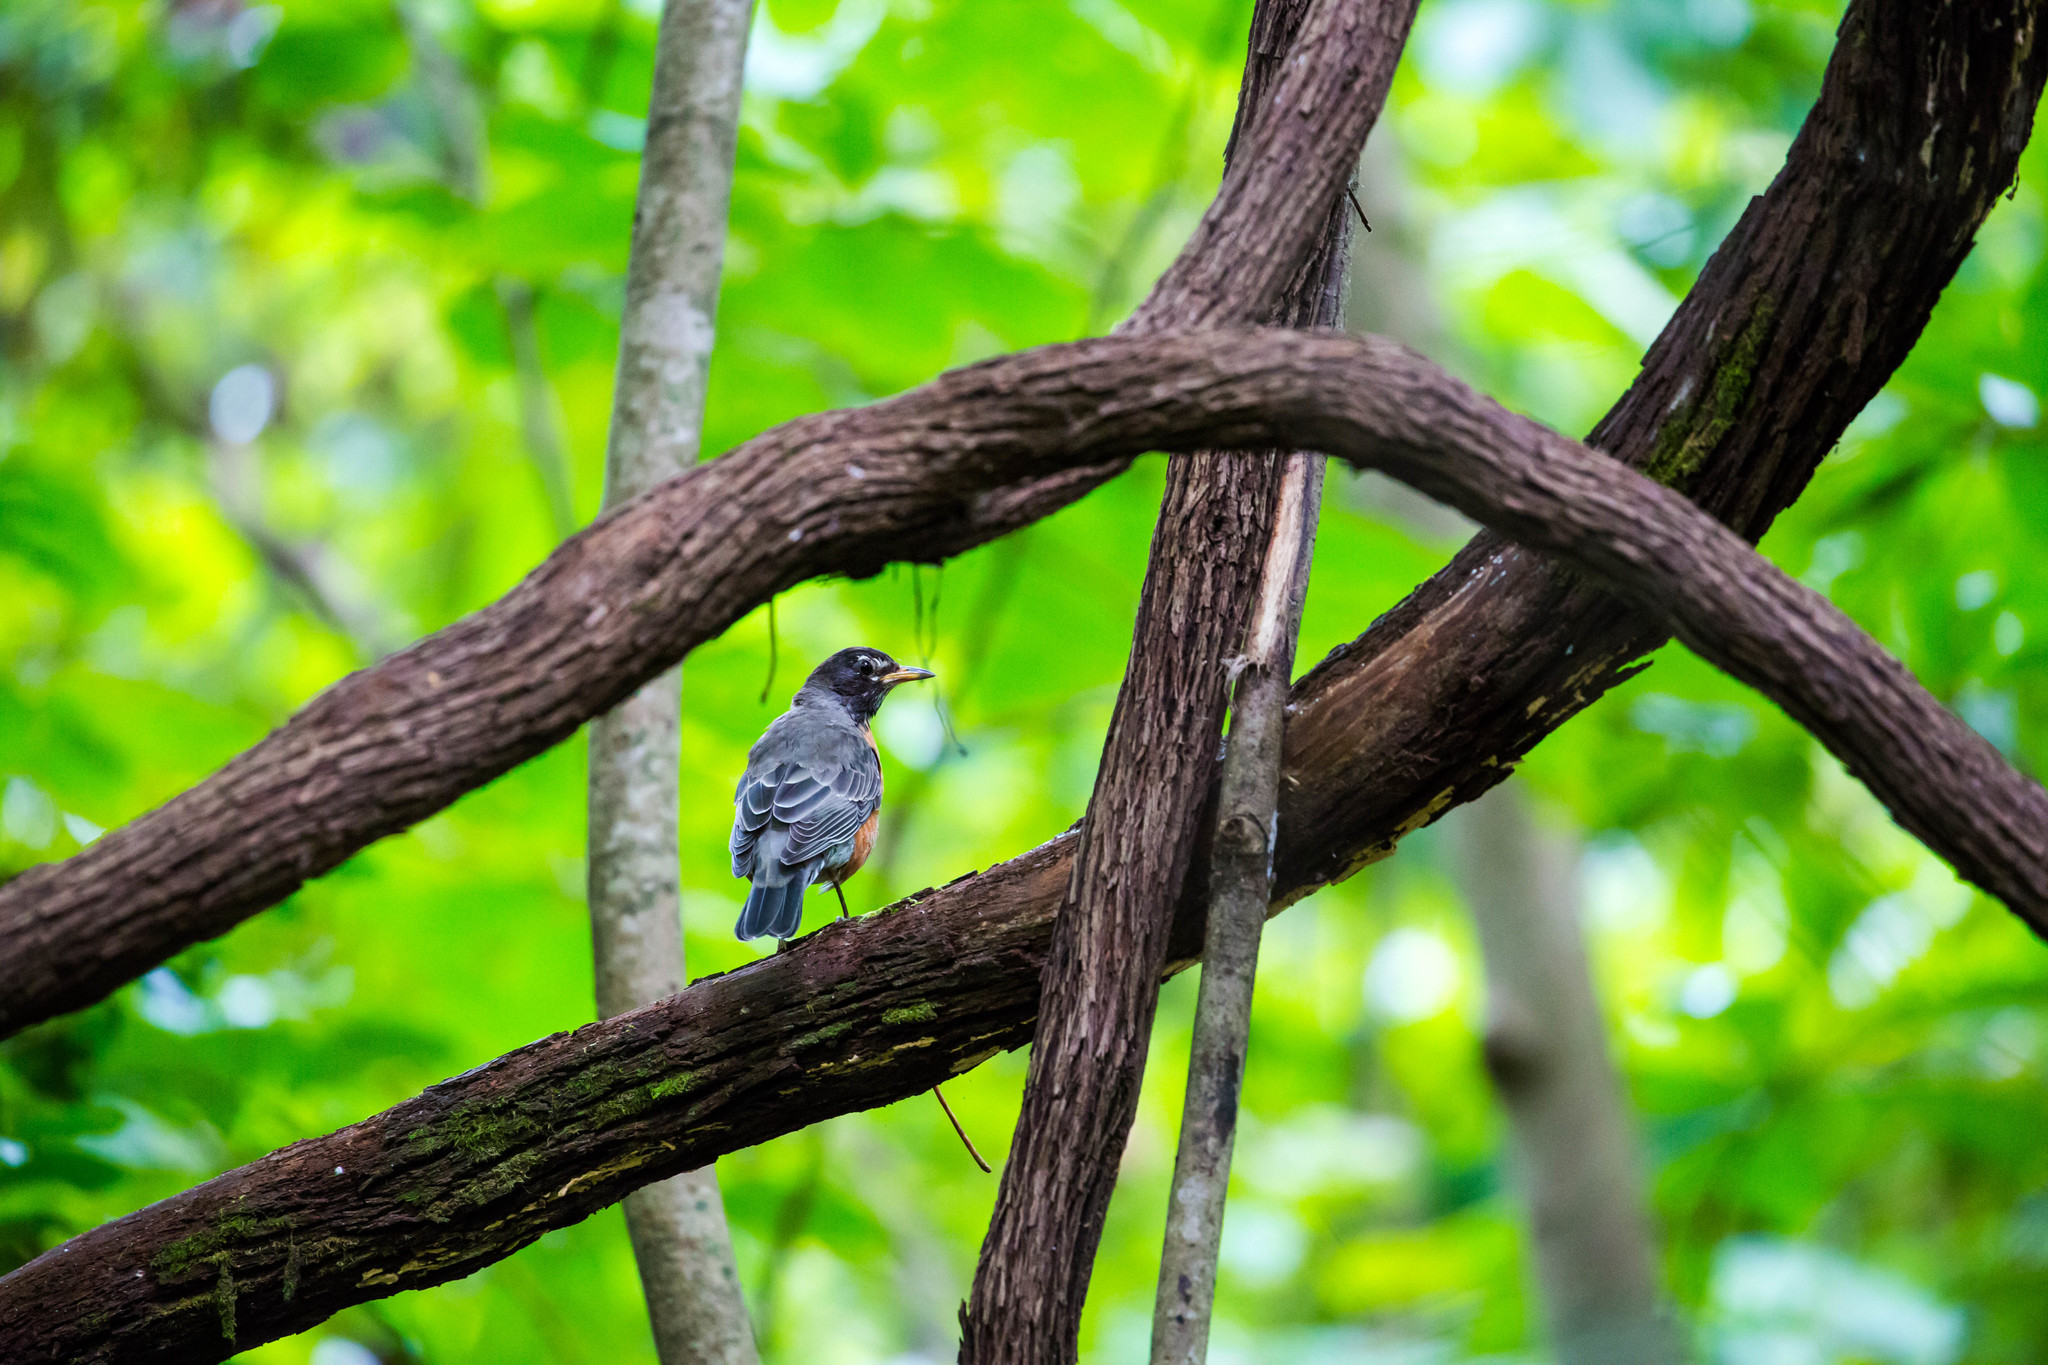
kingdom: Animalia
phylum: Chordata
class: Aves
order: Passeriformes
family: Turdidae
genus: Turdus
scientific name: Turdus migratorius
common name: American robin
